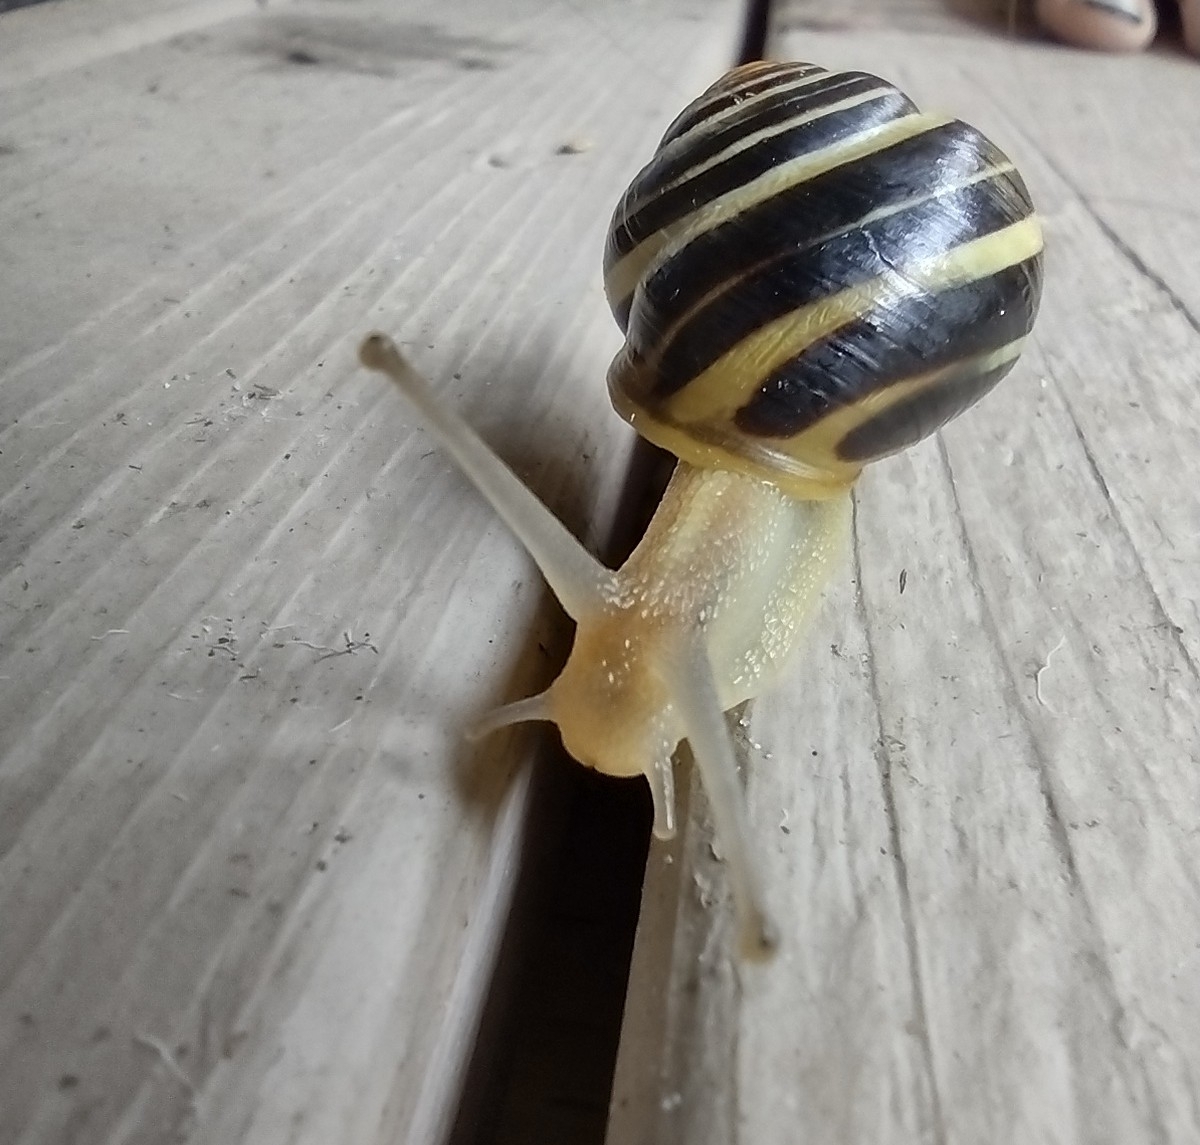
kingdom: Animalia
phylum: Mollusca
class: Gastropoda
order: Stylommatophora
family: Helicidae
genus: Cepaea
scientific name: Cepaea nemoralis
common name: Grovesnail
